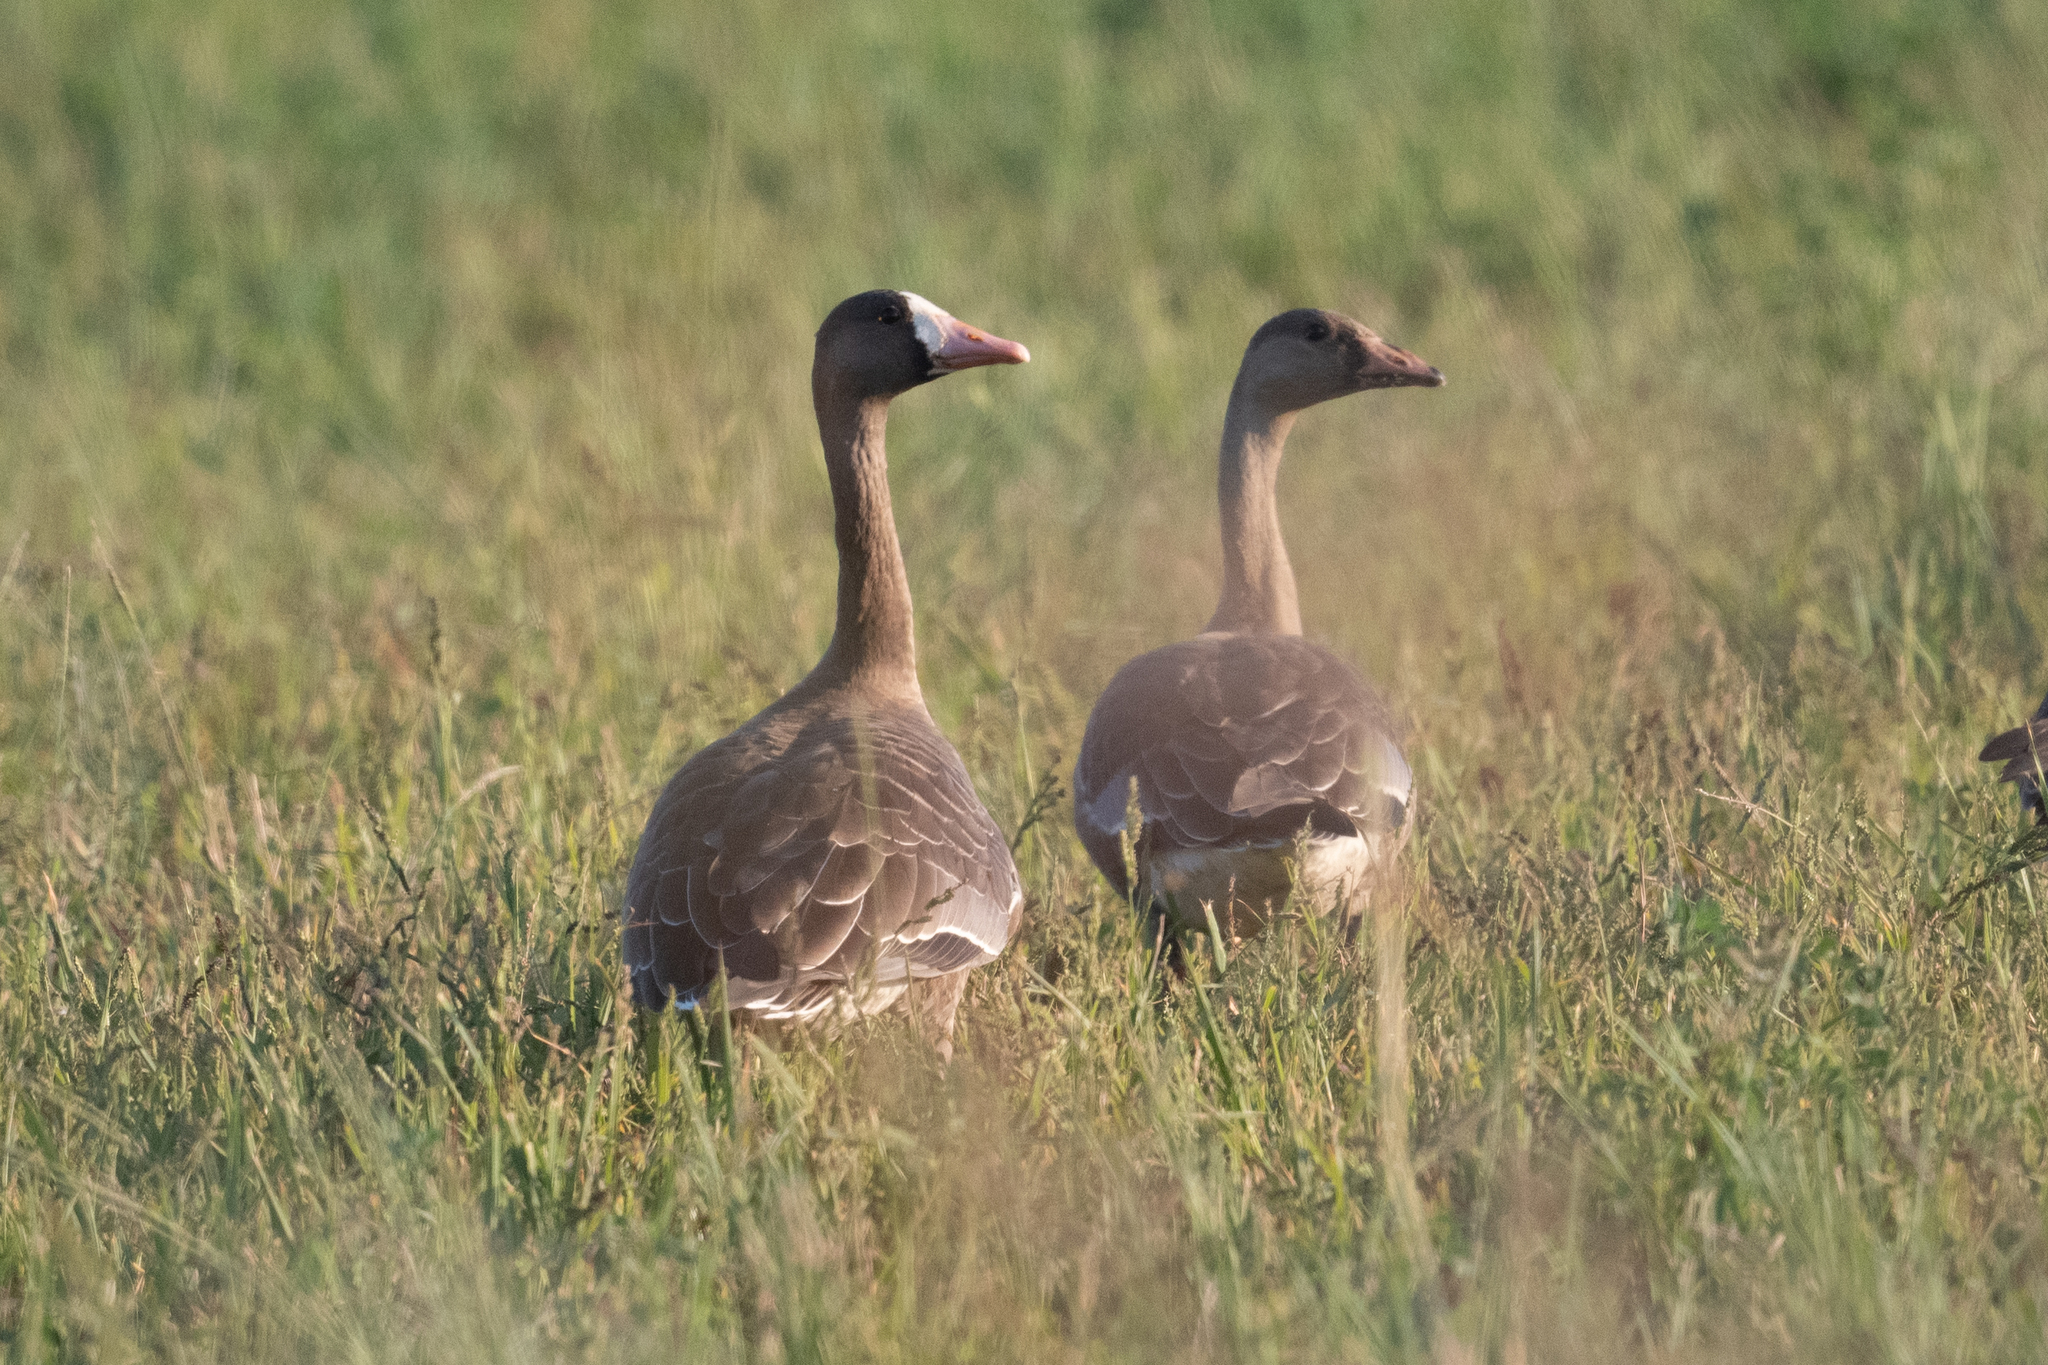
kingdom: Animalia
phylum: Chordata
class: Aves
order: Anseriformes
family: Anatidae
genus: Anser
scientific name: Anser albifrons
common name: Greater white-fronted goose
